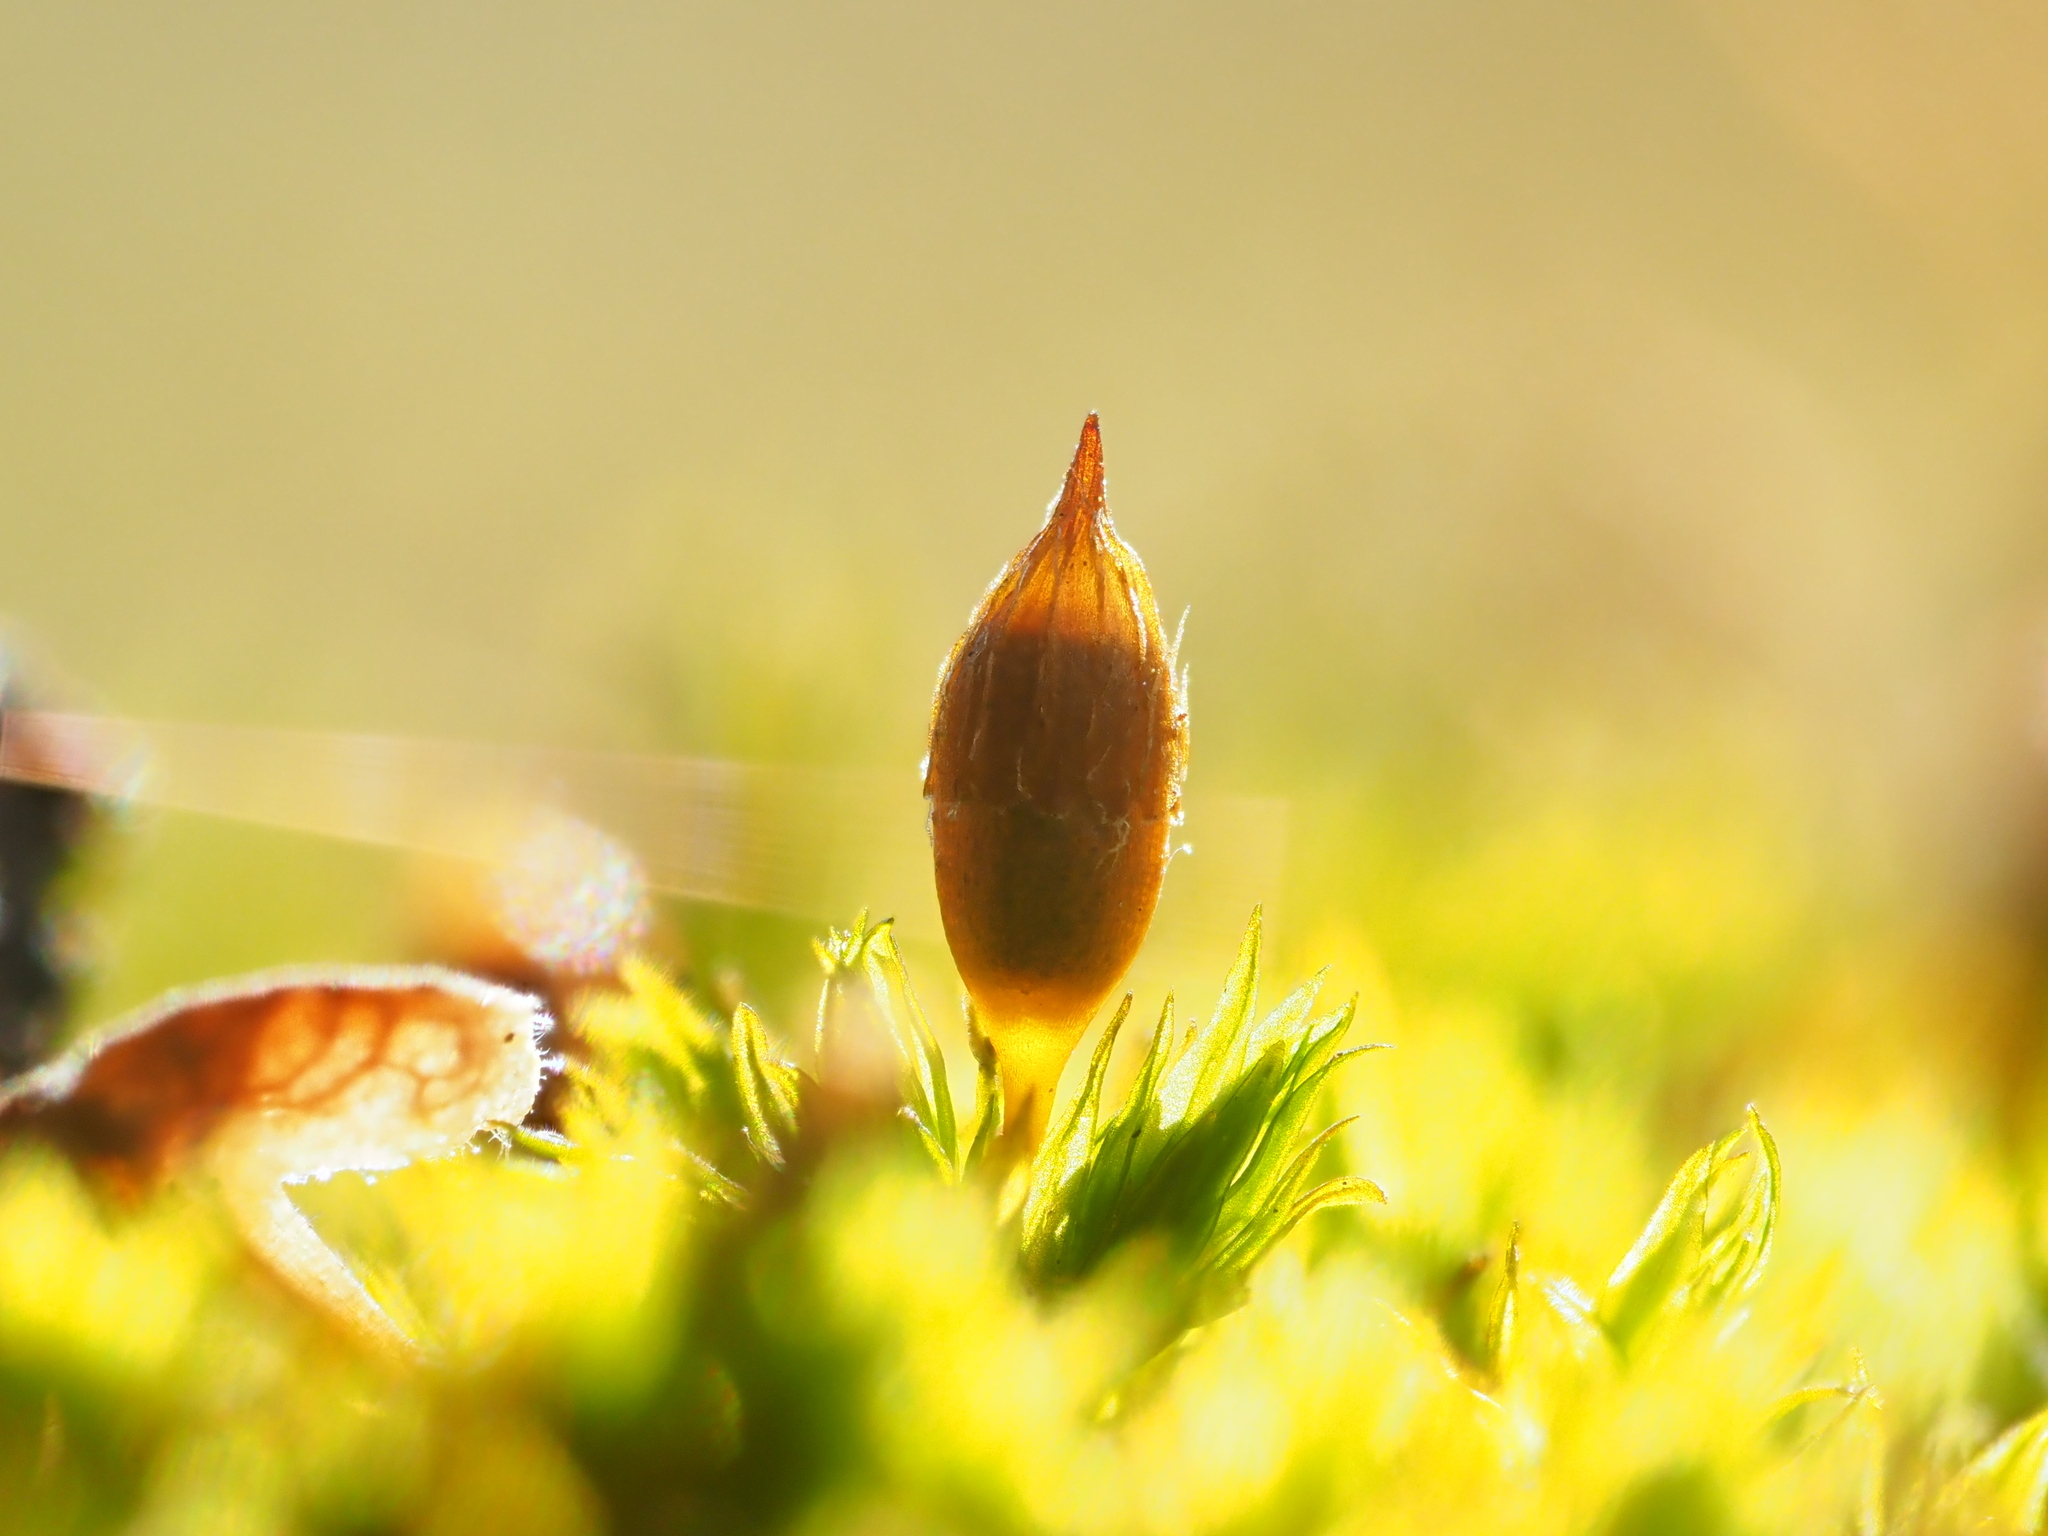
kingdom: Plantae
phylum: Bryophyta
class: Bryopsida
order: Orthotrichales
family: Orthotrichaceae
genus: Orthotrichum
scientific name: Orthotrichum anomalum
